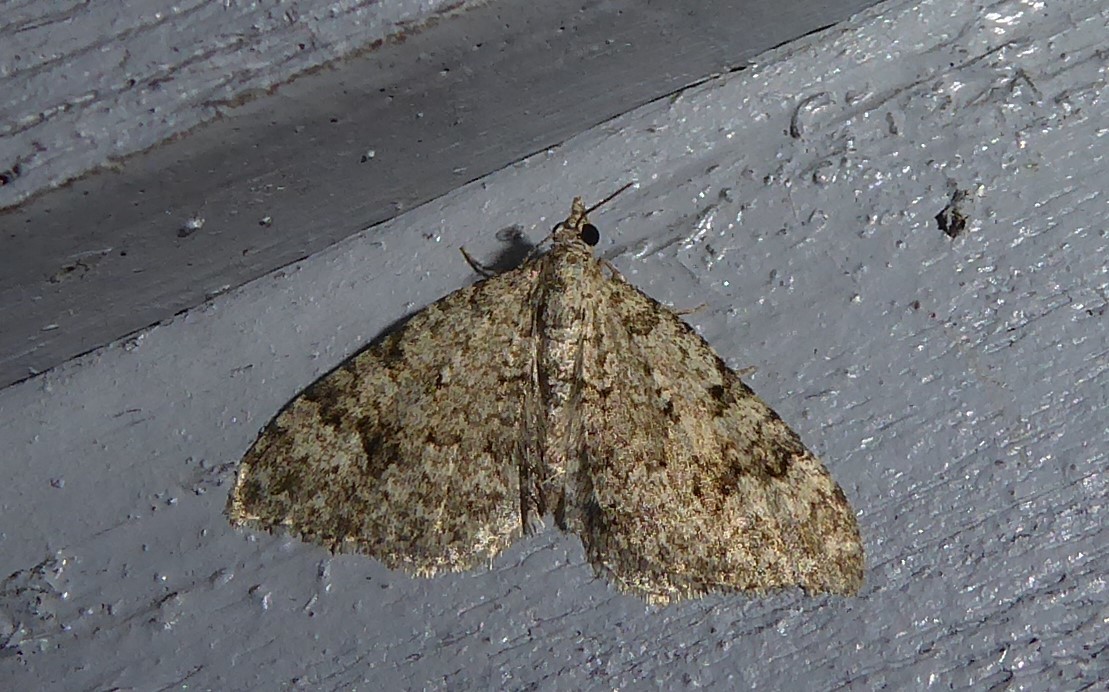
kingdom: Animalia
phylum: Arthropoda
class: Insecta
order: Lepidoptera
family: Geometridae
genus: Helastia
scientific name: Helastia cinerearia
